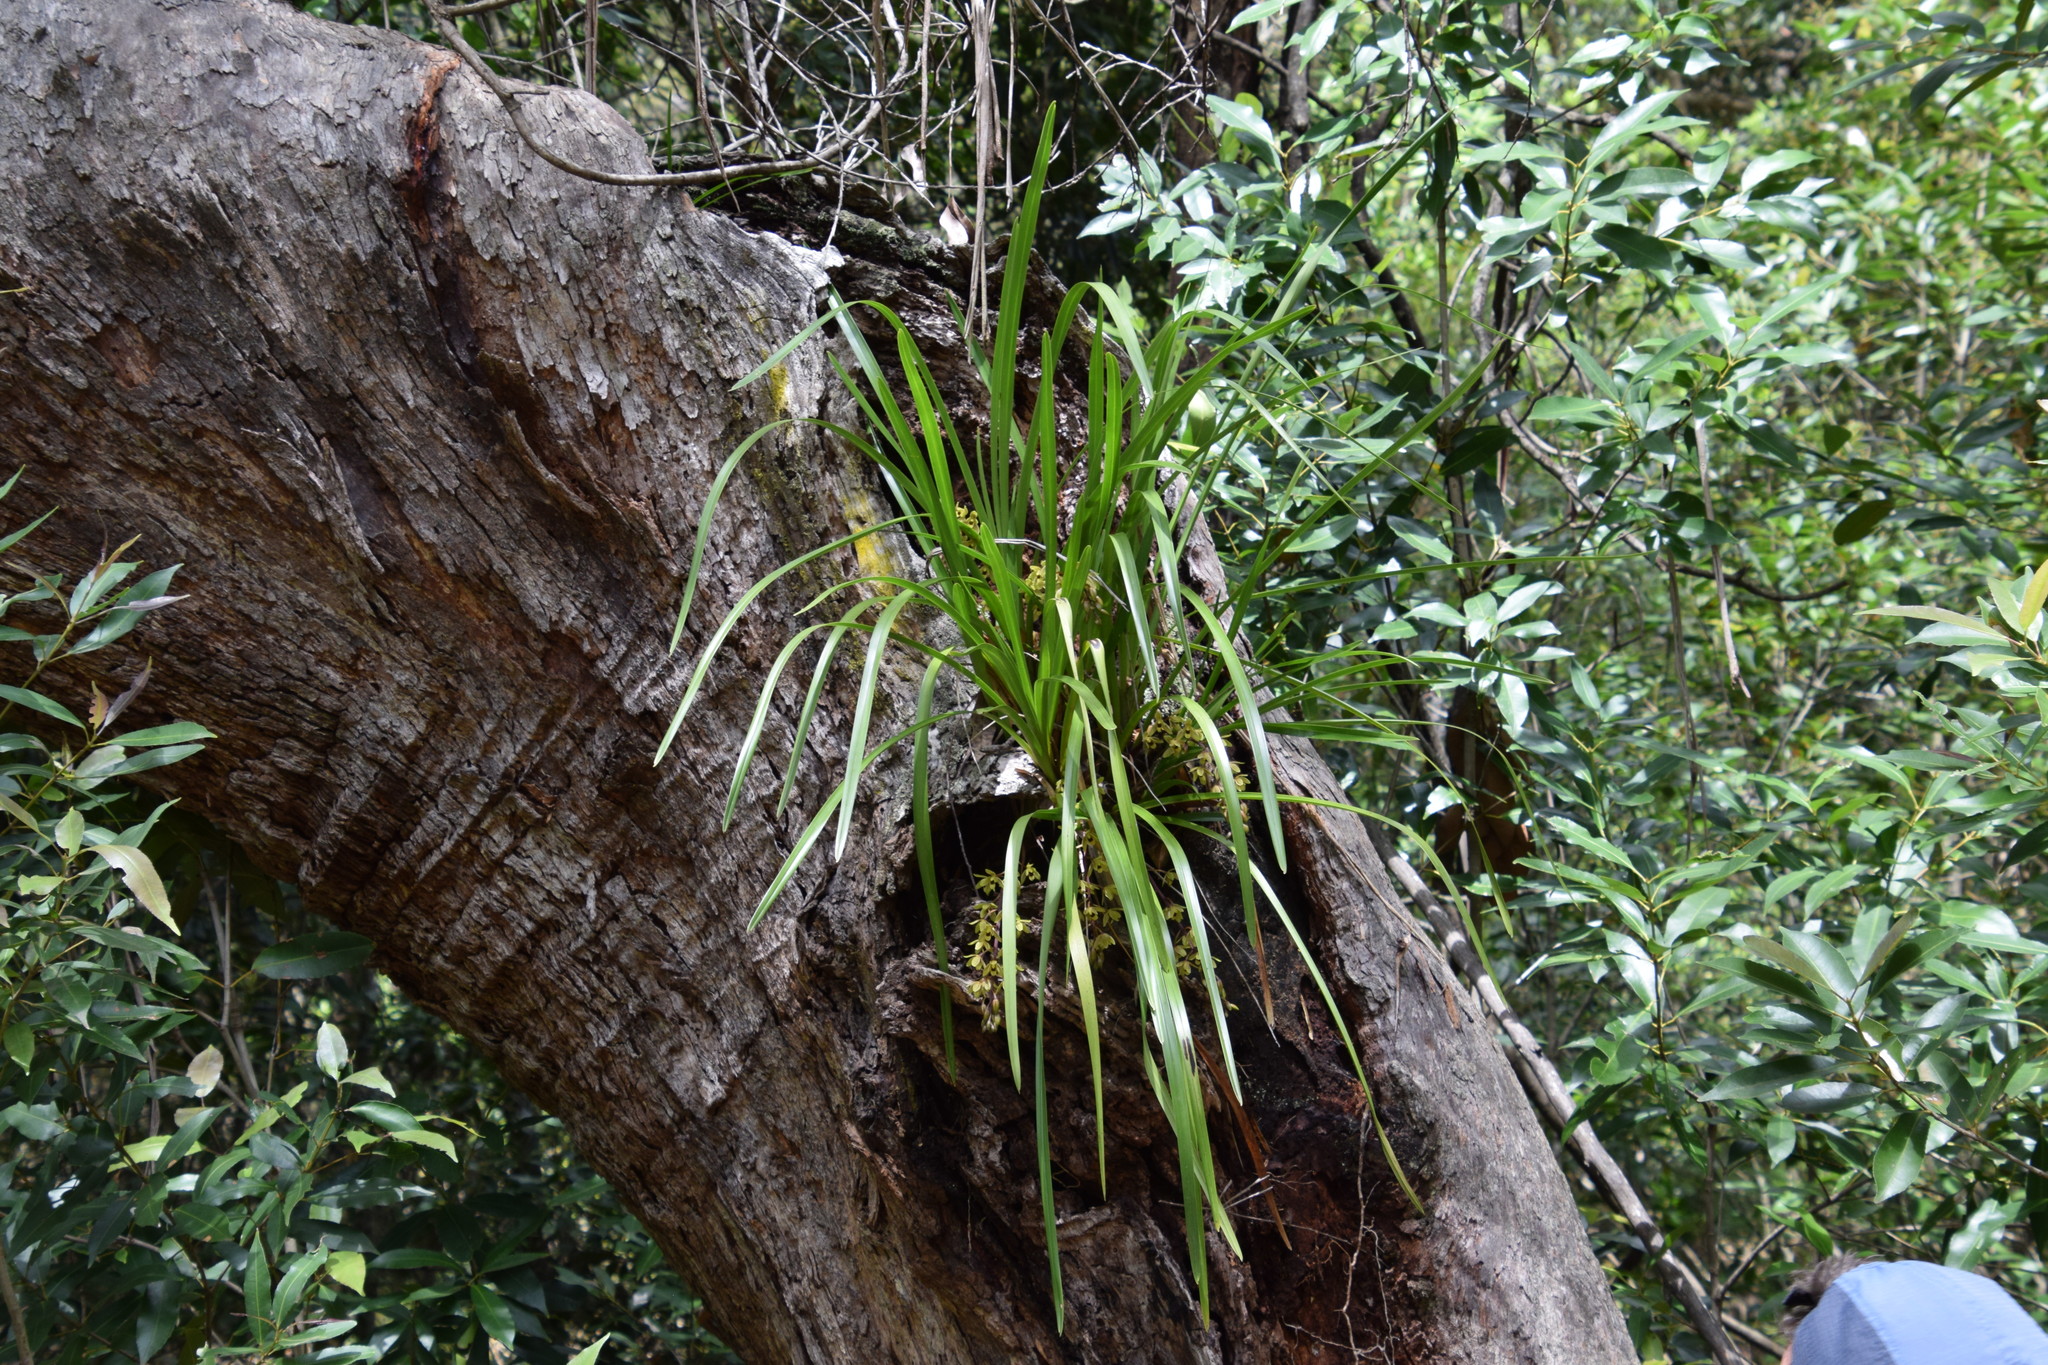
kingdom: Plantae
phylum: Tracheophyta
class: Liliopsida
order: Asparagales
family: Orchidaceae
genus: Cymbidium
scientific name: Cymbidium suave
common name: Snake orchid
